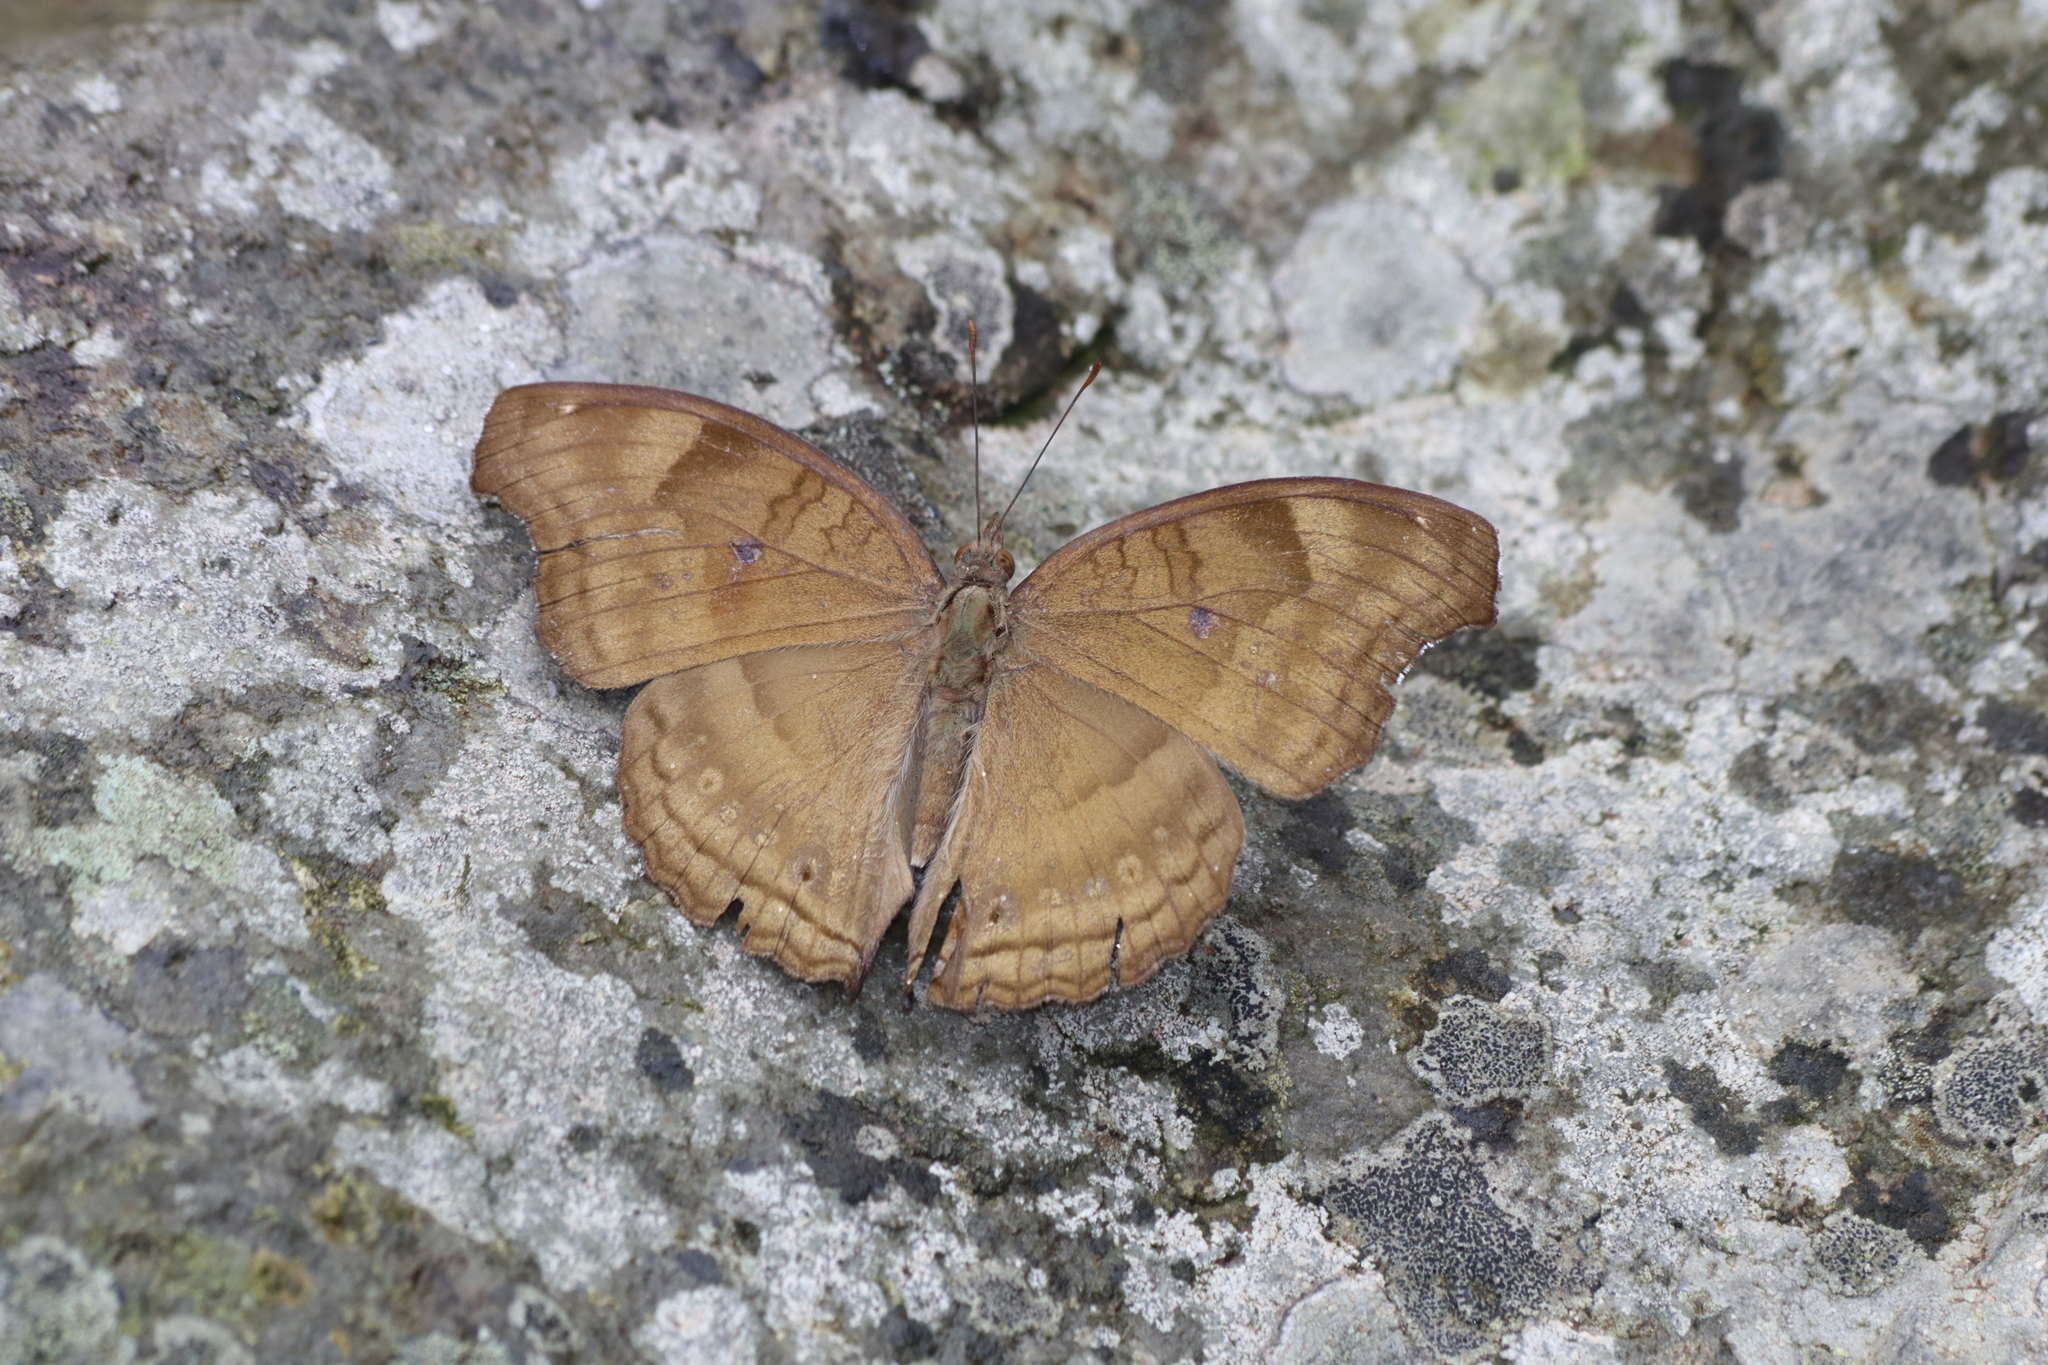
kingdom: Animalia
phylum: Arthropoda
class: Insecta
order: Lepidoptera
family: Nymphalidae
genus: Junonia
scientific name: Junonia iphita
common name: Chocolate pansy
